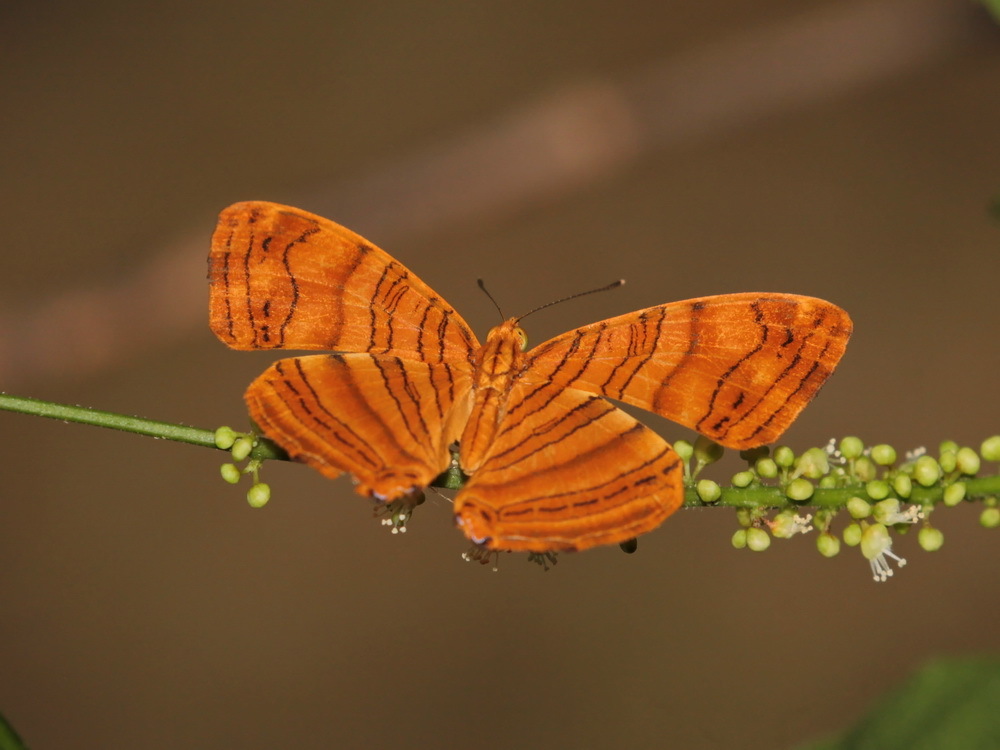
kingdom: Animalia
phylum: Arthropoda
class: Insecta
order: Lepidoptera
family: Nymphalidae
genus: Chersonesia
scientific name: Chersonesia intermedia
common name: Intermediate maplet
